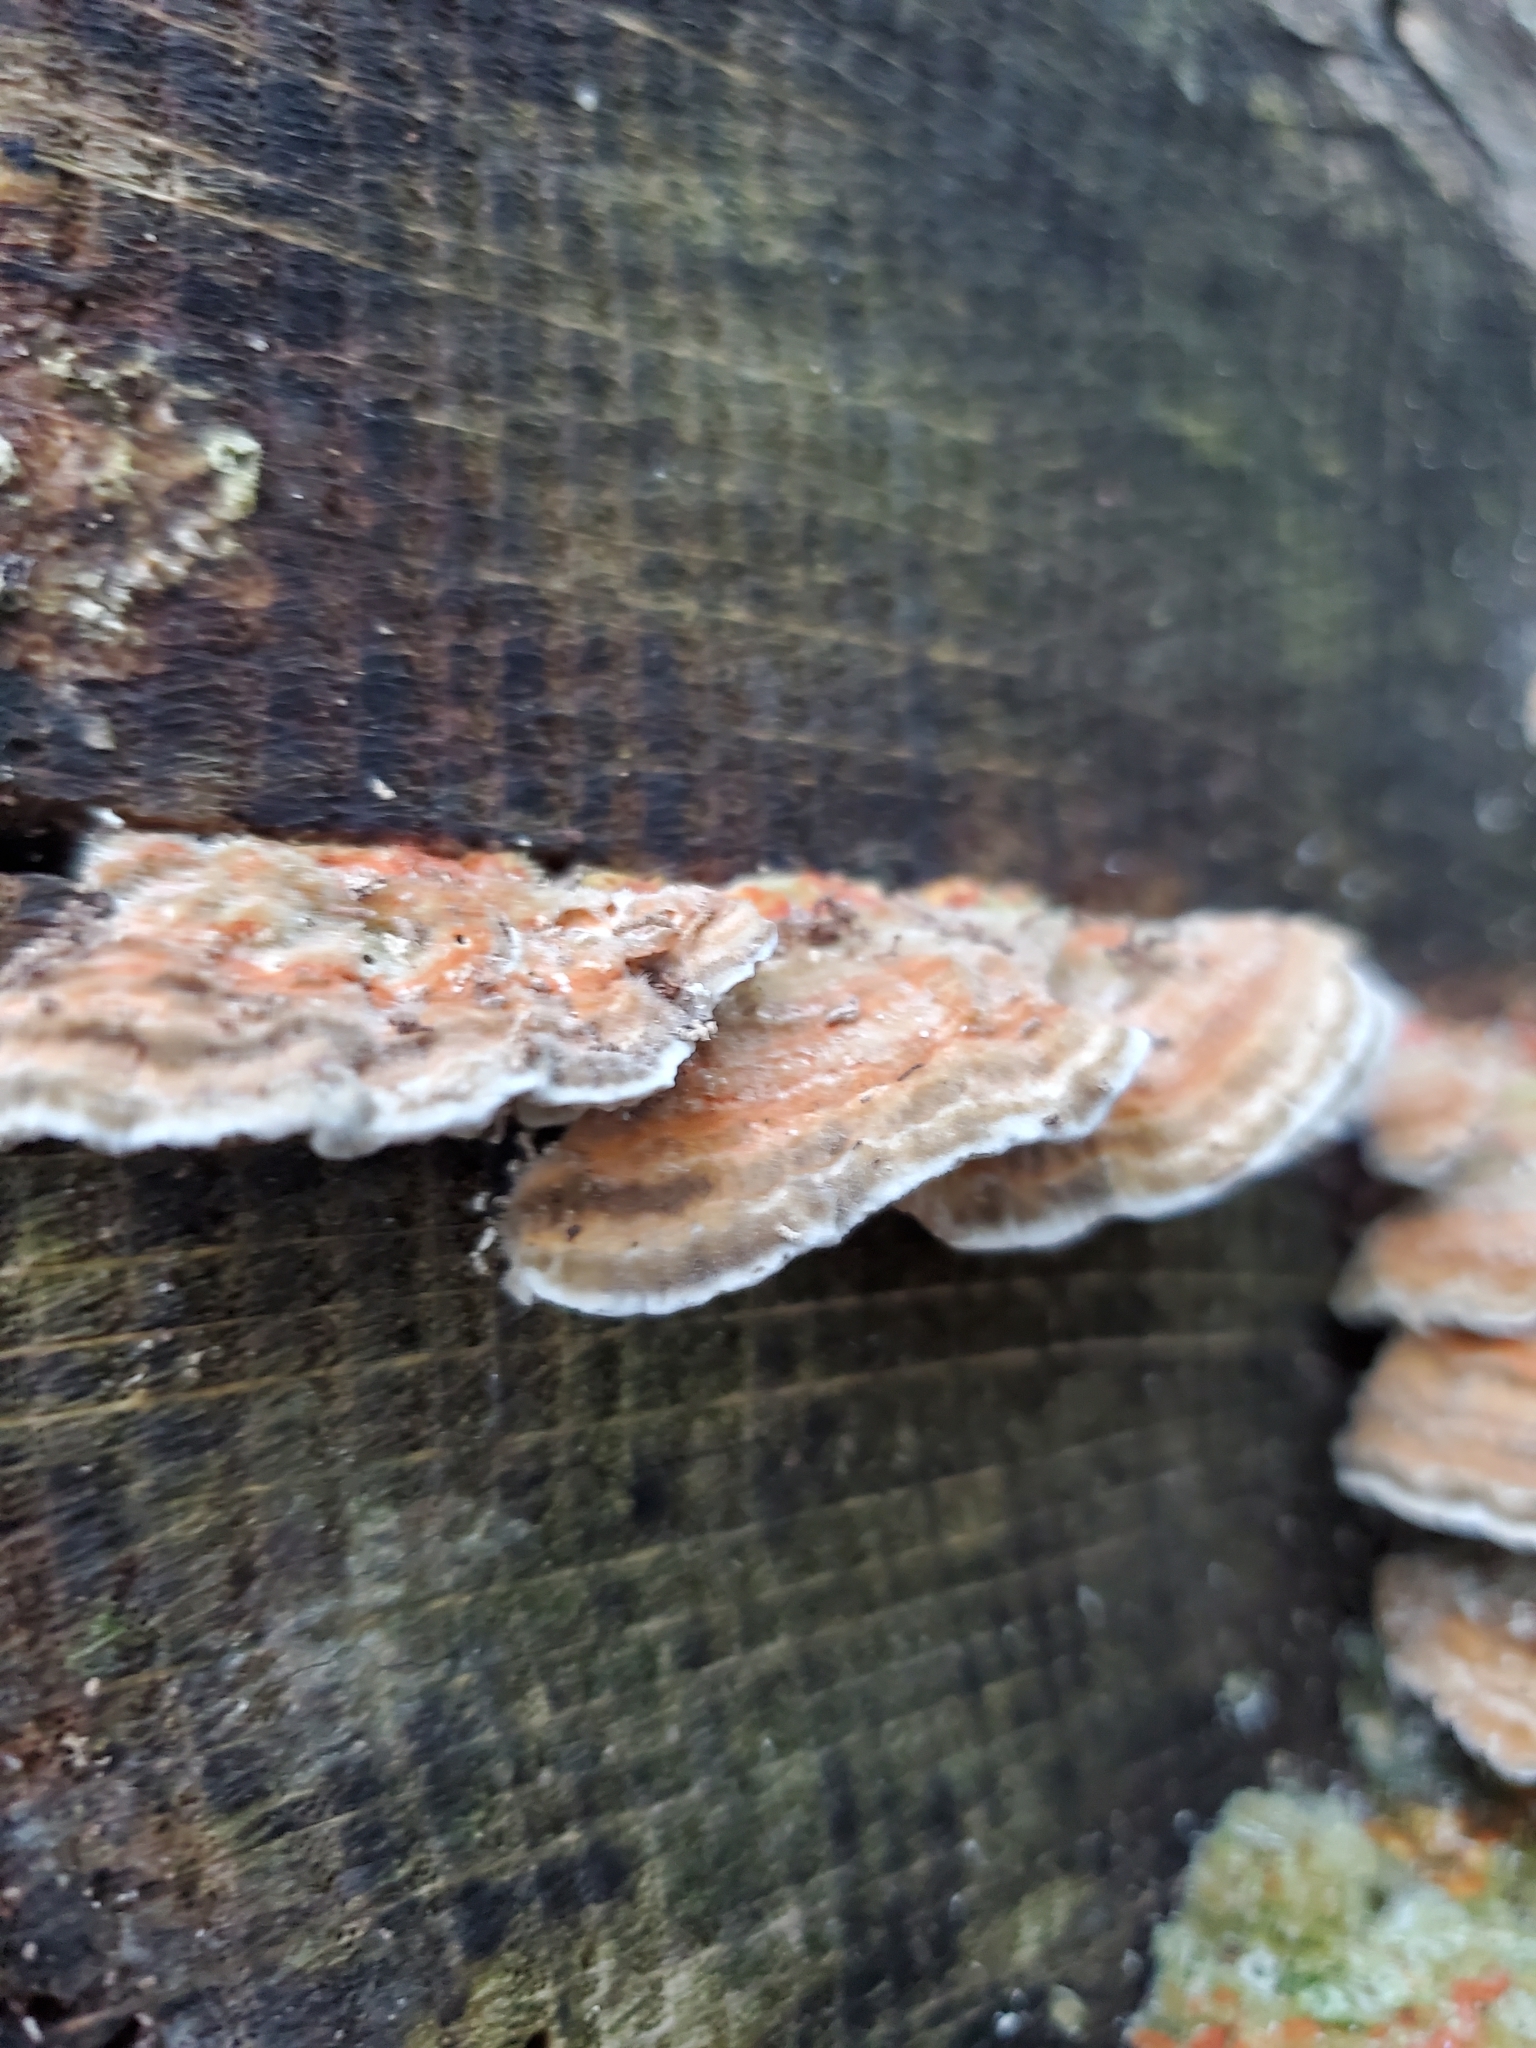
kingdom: Fungi
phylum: Basidiomycota
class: Agaricomycetes
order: Polyporales
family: Polyporaceae
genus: Lenzites
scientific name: Lenzites betulinus
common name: Birch mazegill
